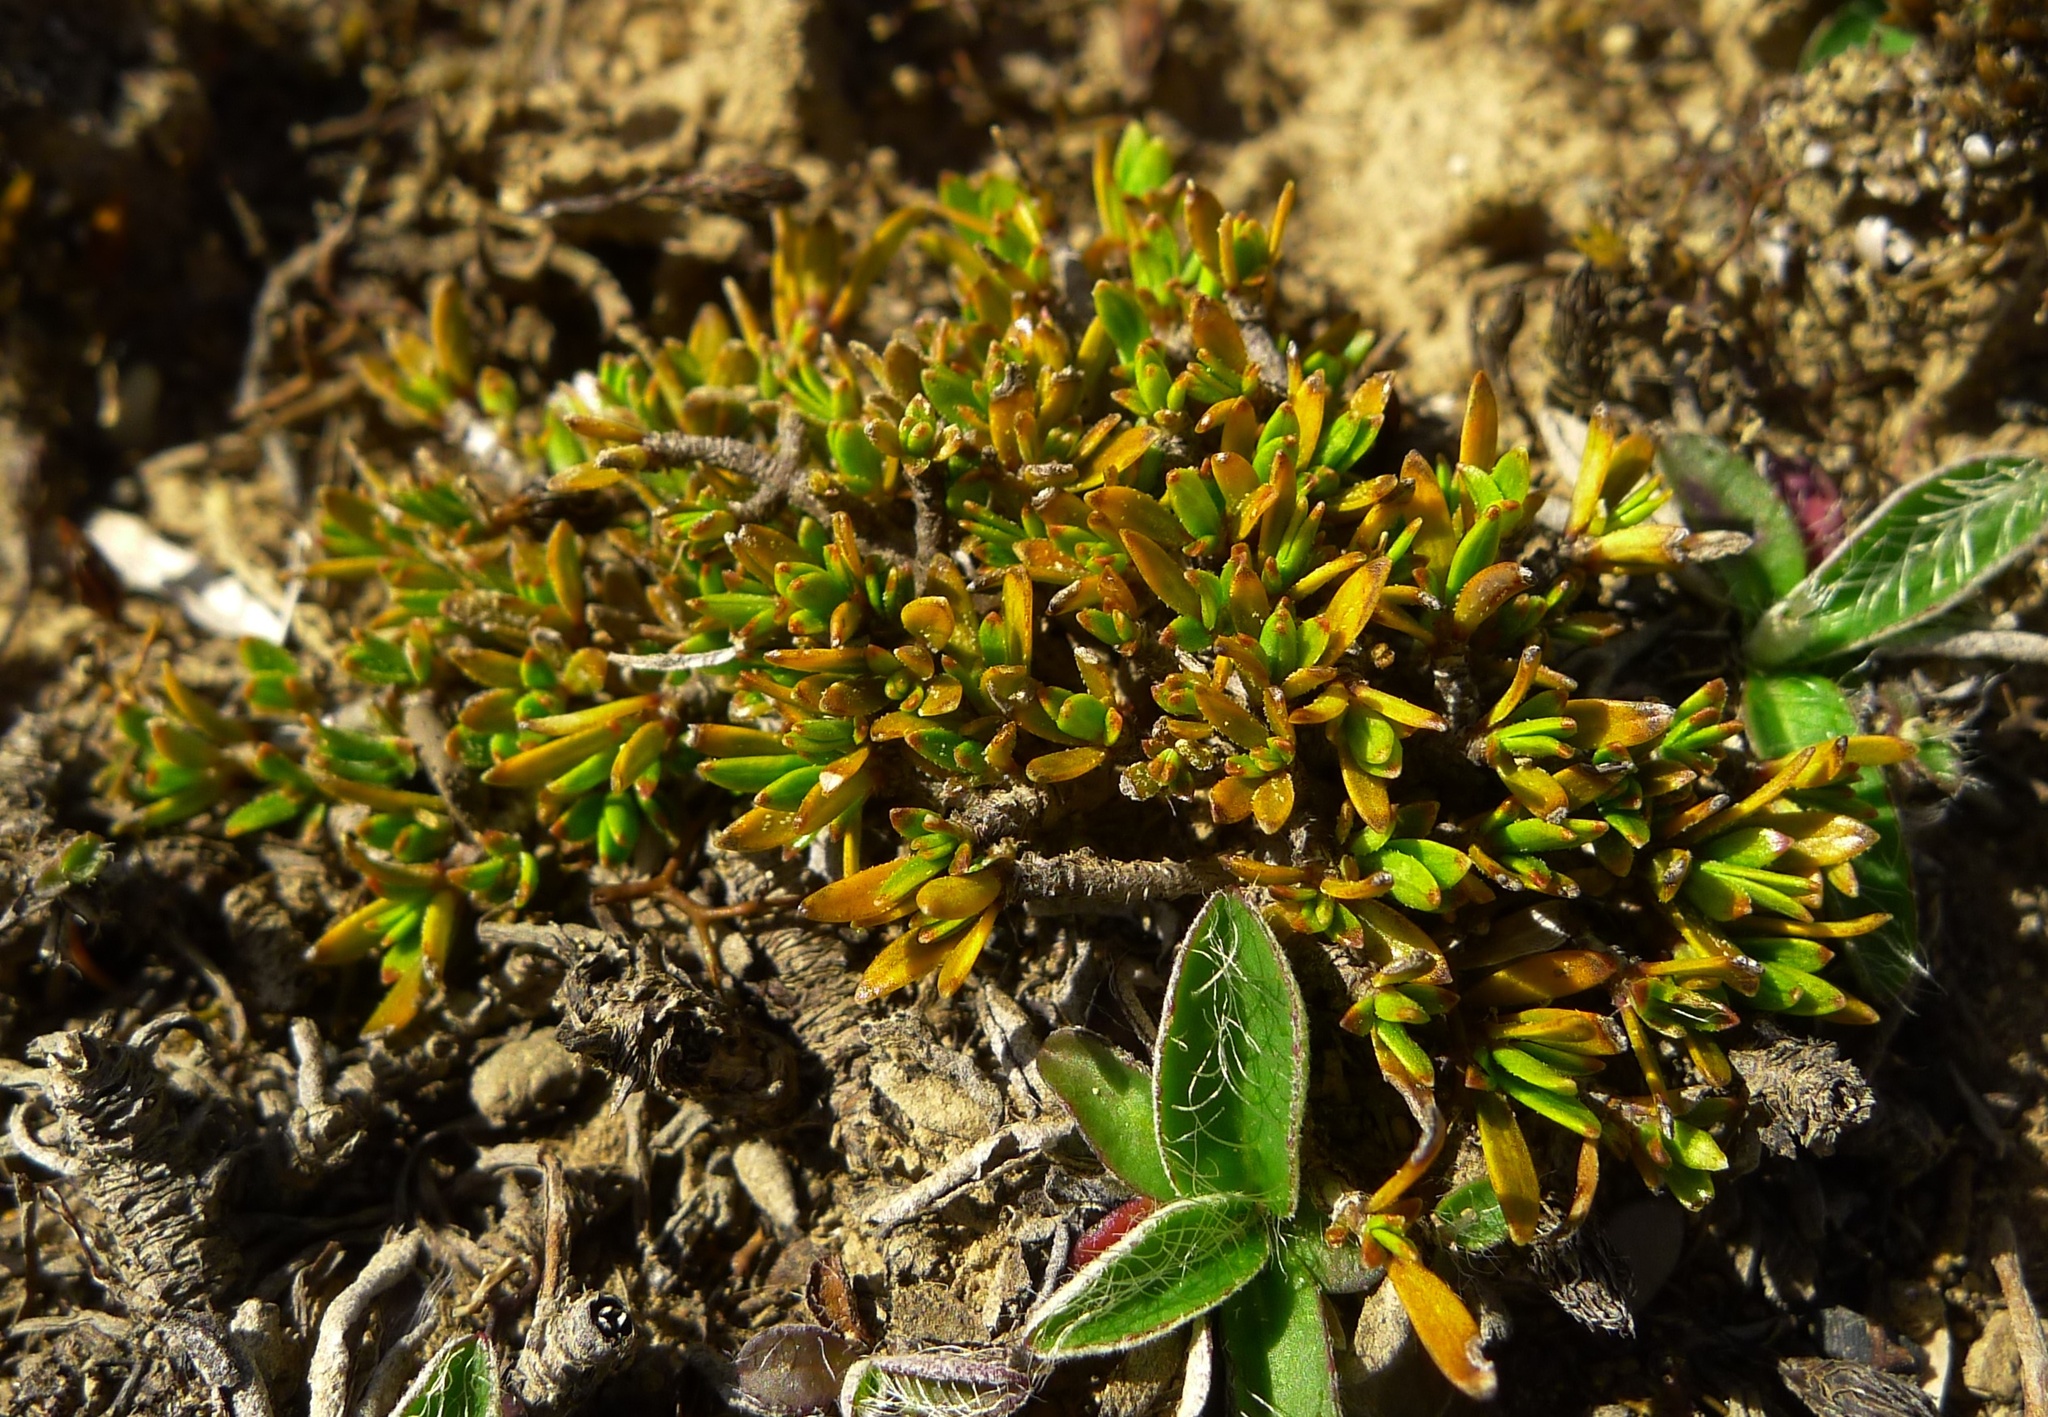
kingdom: Plantae
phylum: Tracheophyta
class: Magnoliopsida
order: Gentianales
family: Rubiaceae
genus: Coprosma
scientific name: Coprosma petriei
